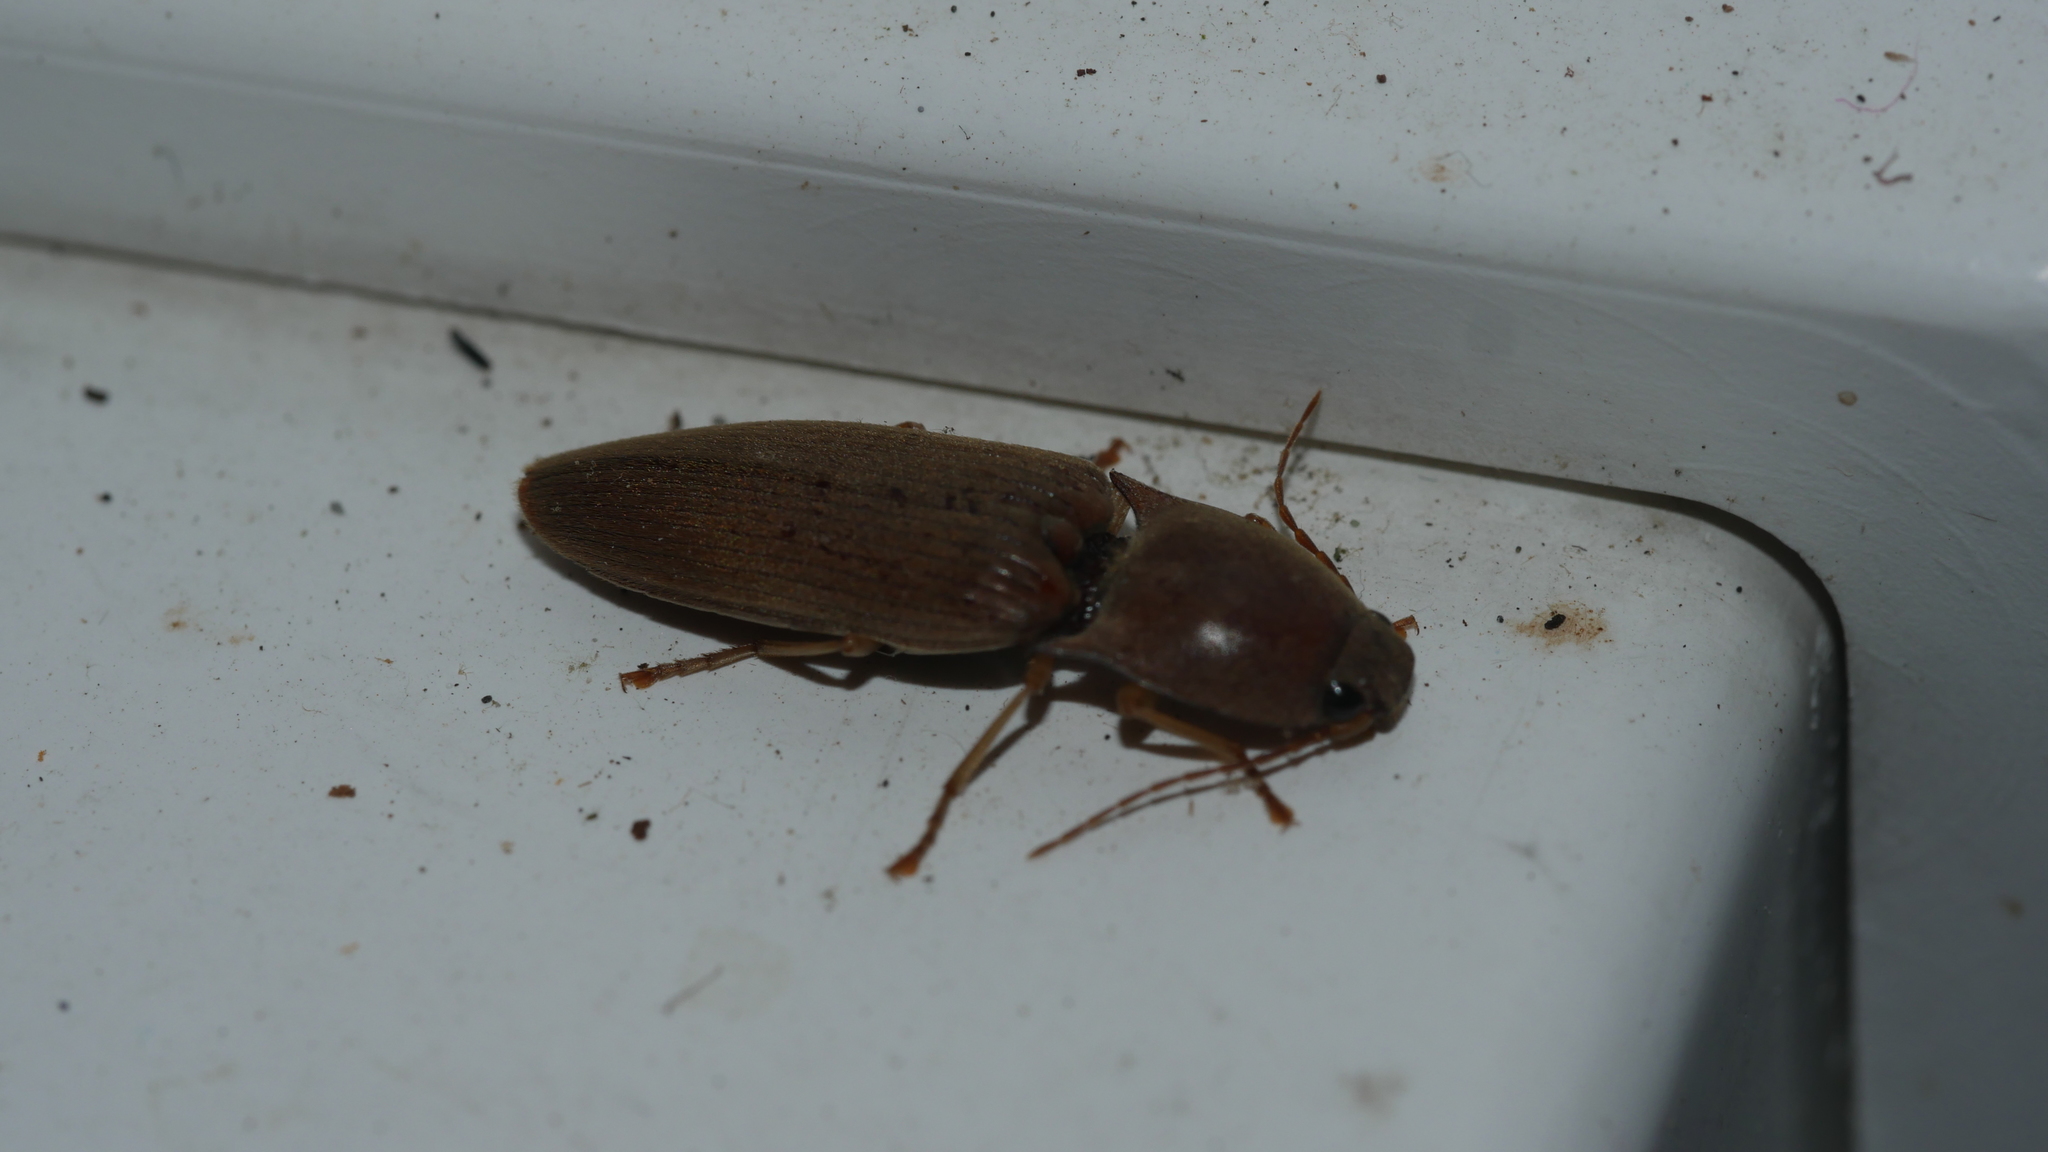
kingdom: Animalia
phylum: Arthropoda
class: Insecta
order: Coleoptera
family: Elateridae
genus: Monocrepidius
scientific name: Monocrepidius lividus
